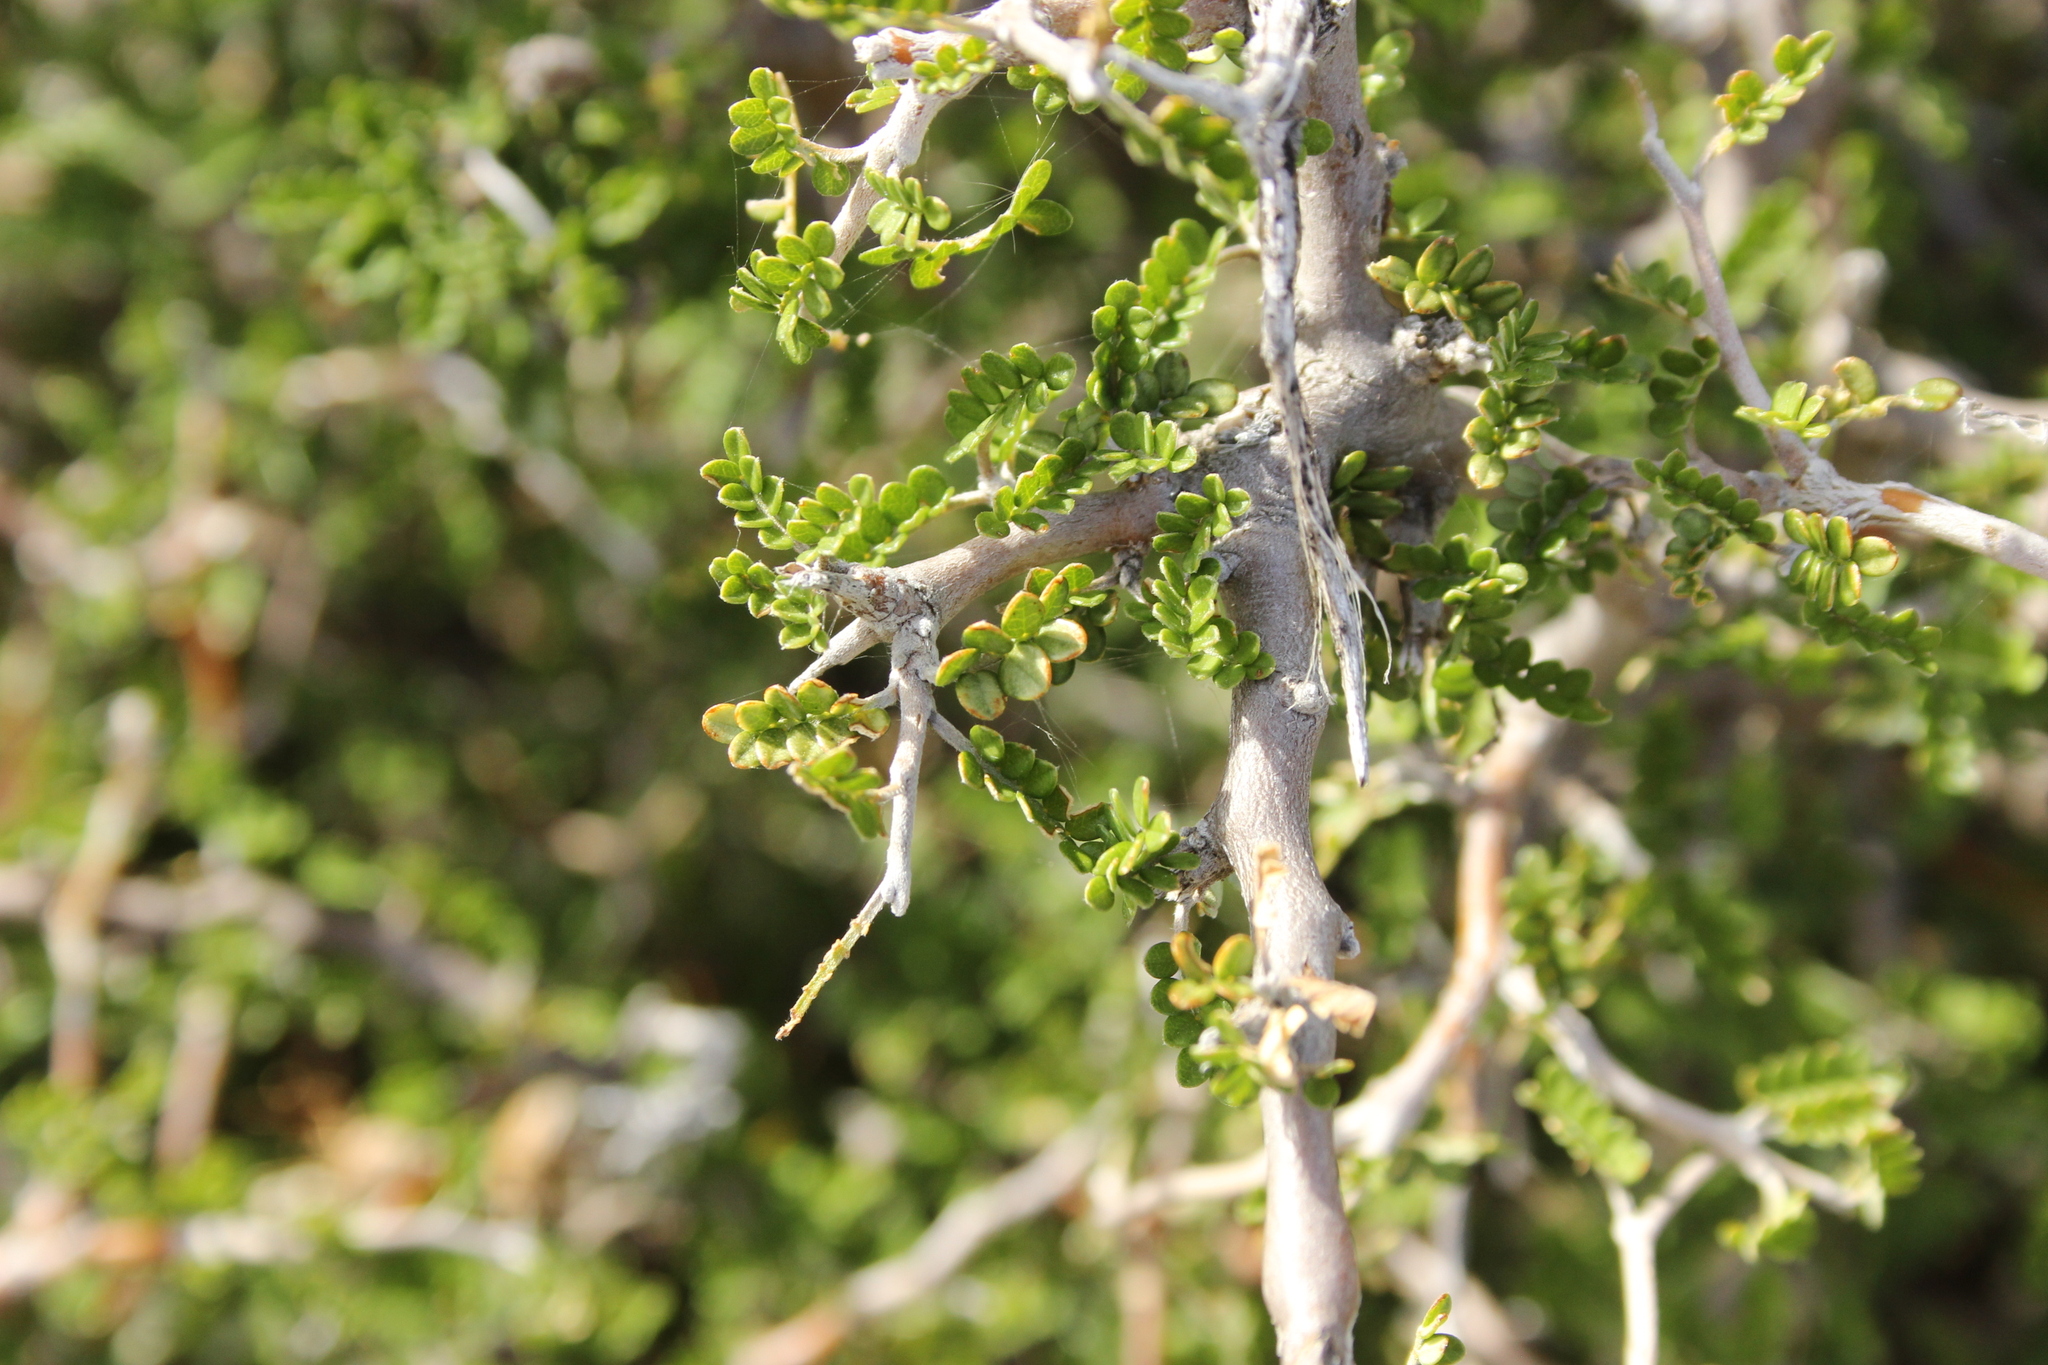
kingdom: Plantae
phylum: Tracheophyta
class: Magnoliopsida
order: Fabales
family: Fabaceae
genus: Sophora
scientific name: Sophora prostrata
